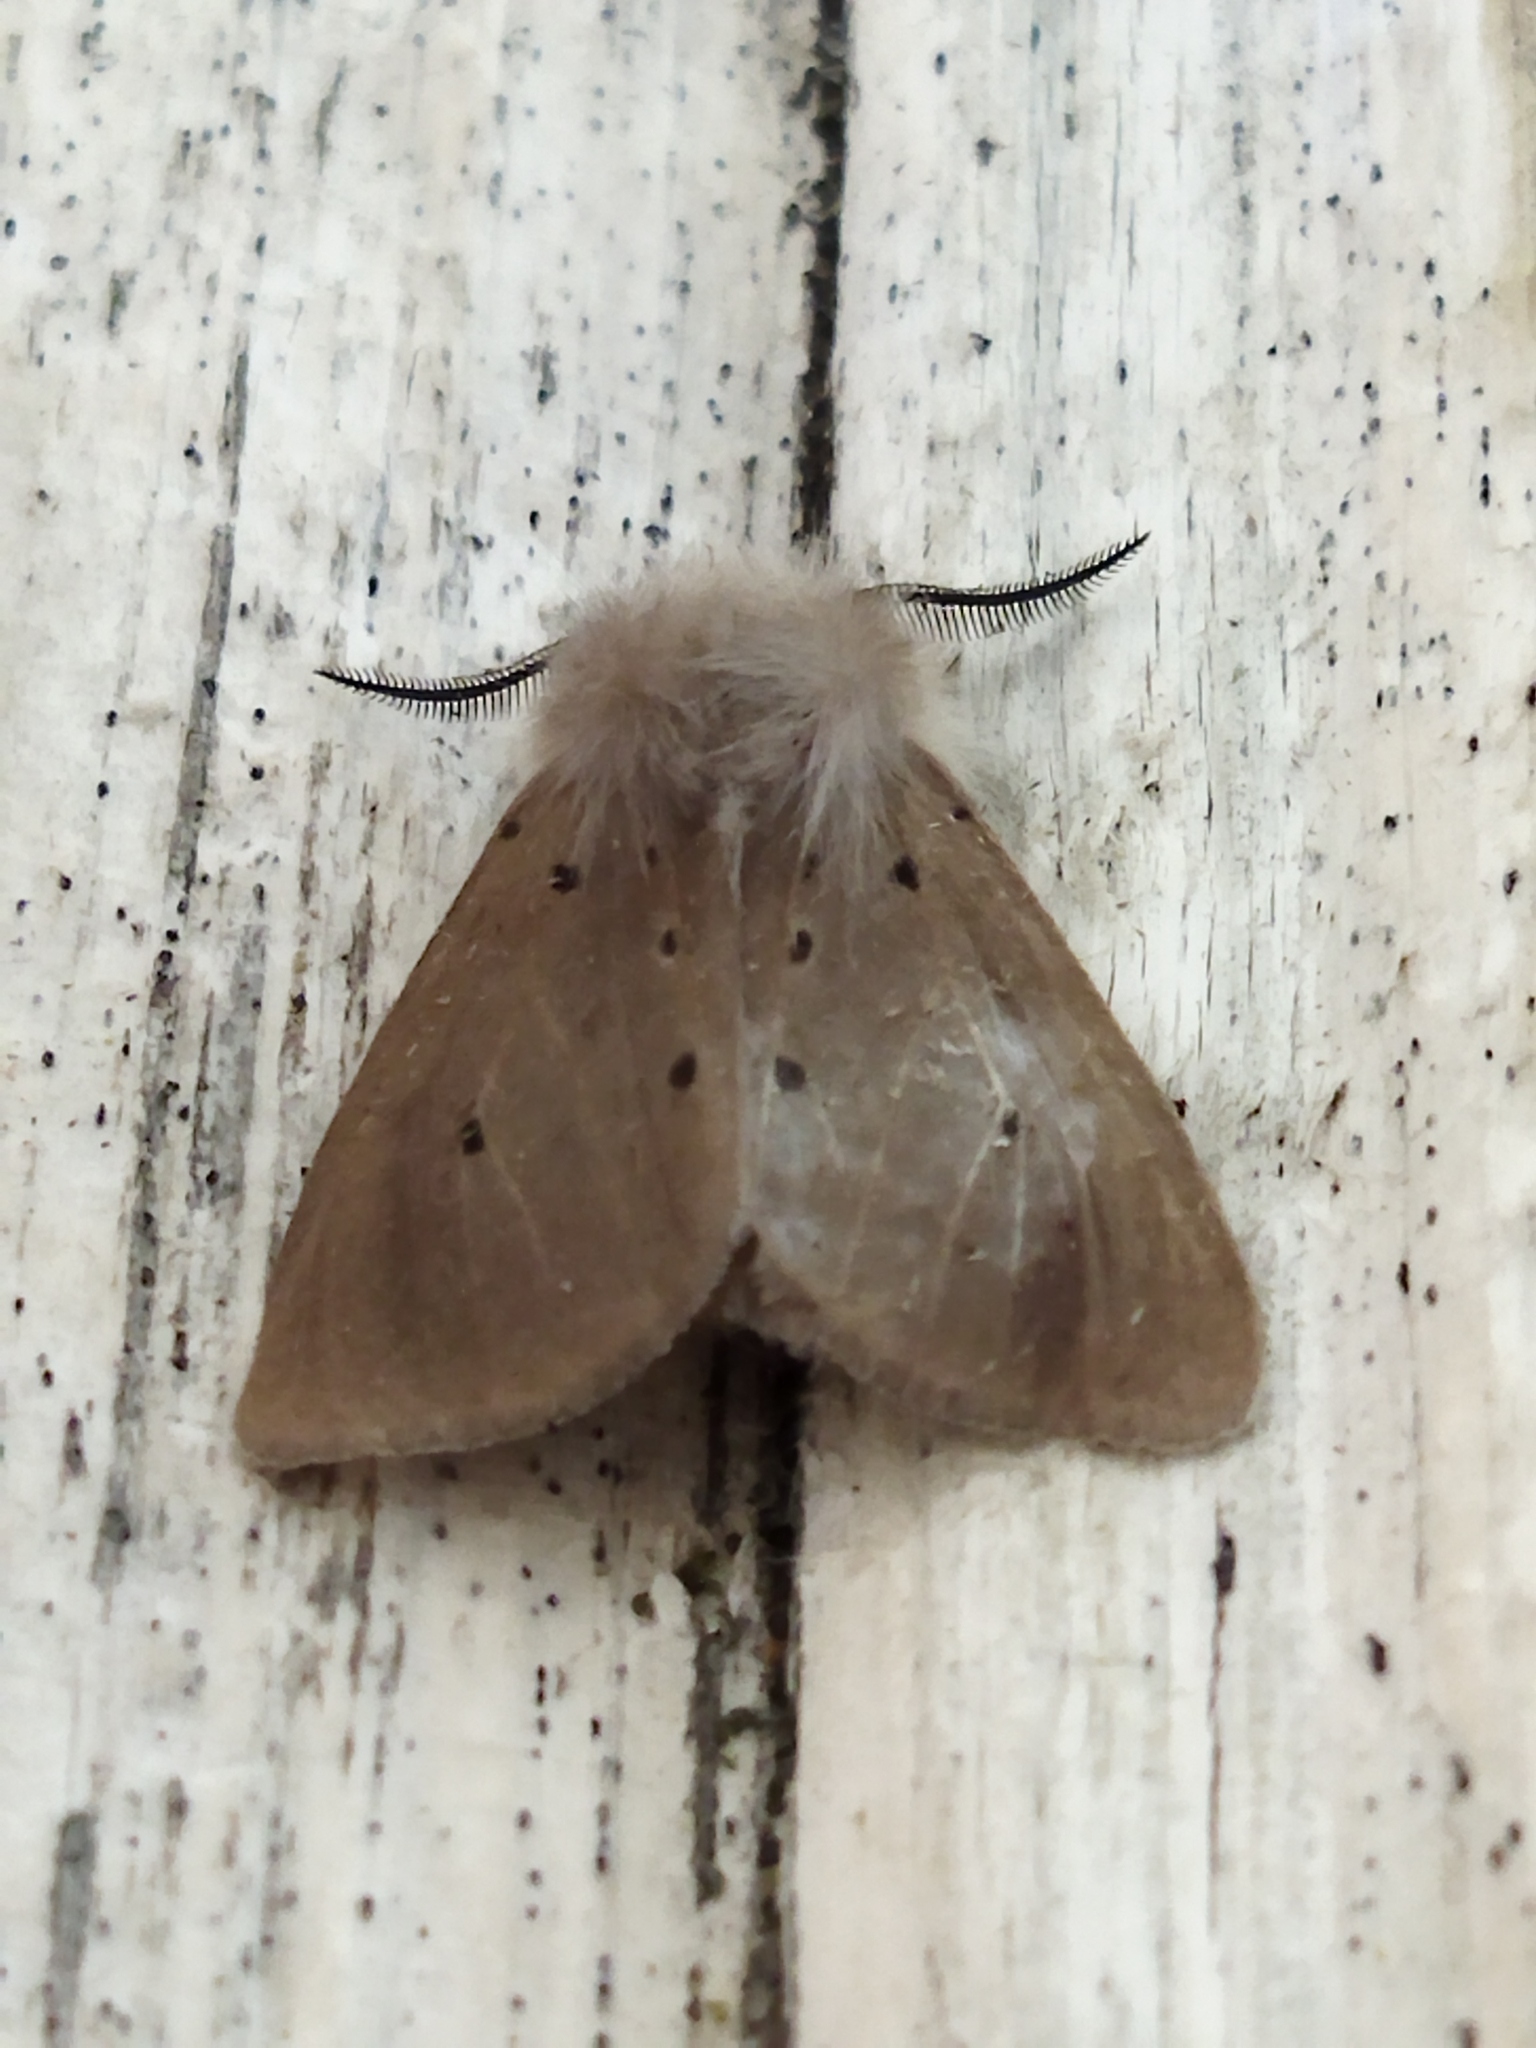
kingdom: Animalia
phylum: Arthropoda
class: Insecta
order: Lepidoptera
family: Erebidae
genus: Diaphora
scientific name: Diaphora mendica
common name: Muslin moth
